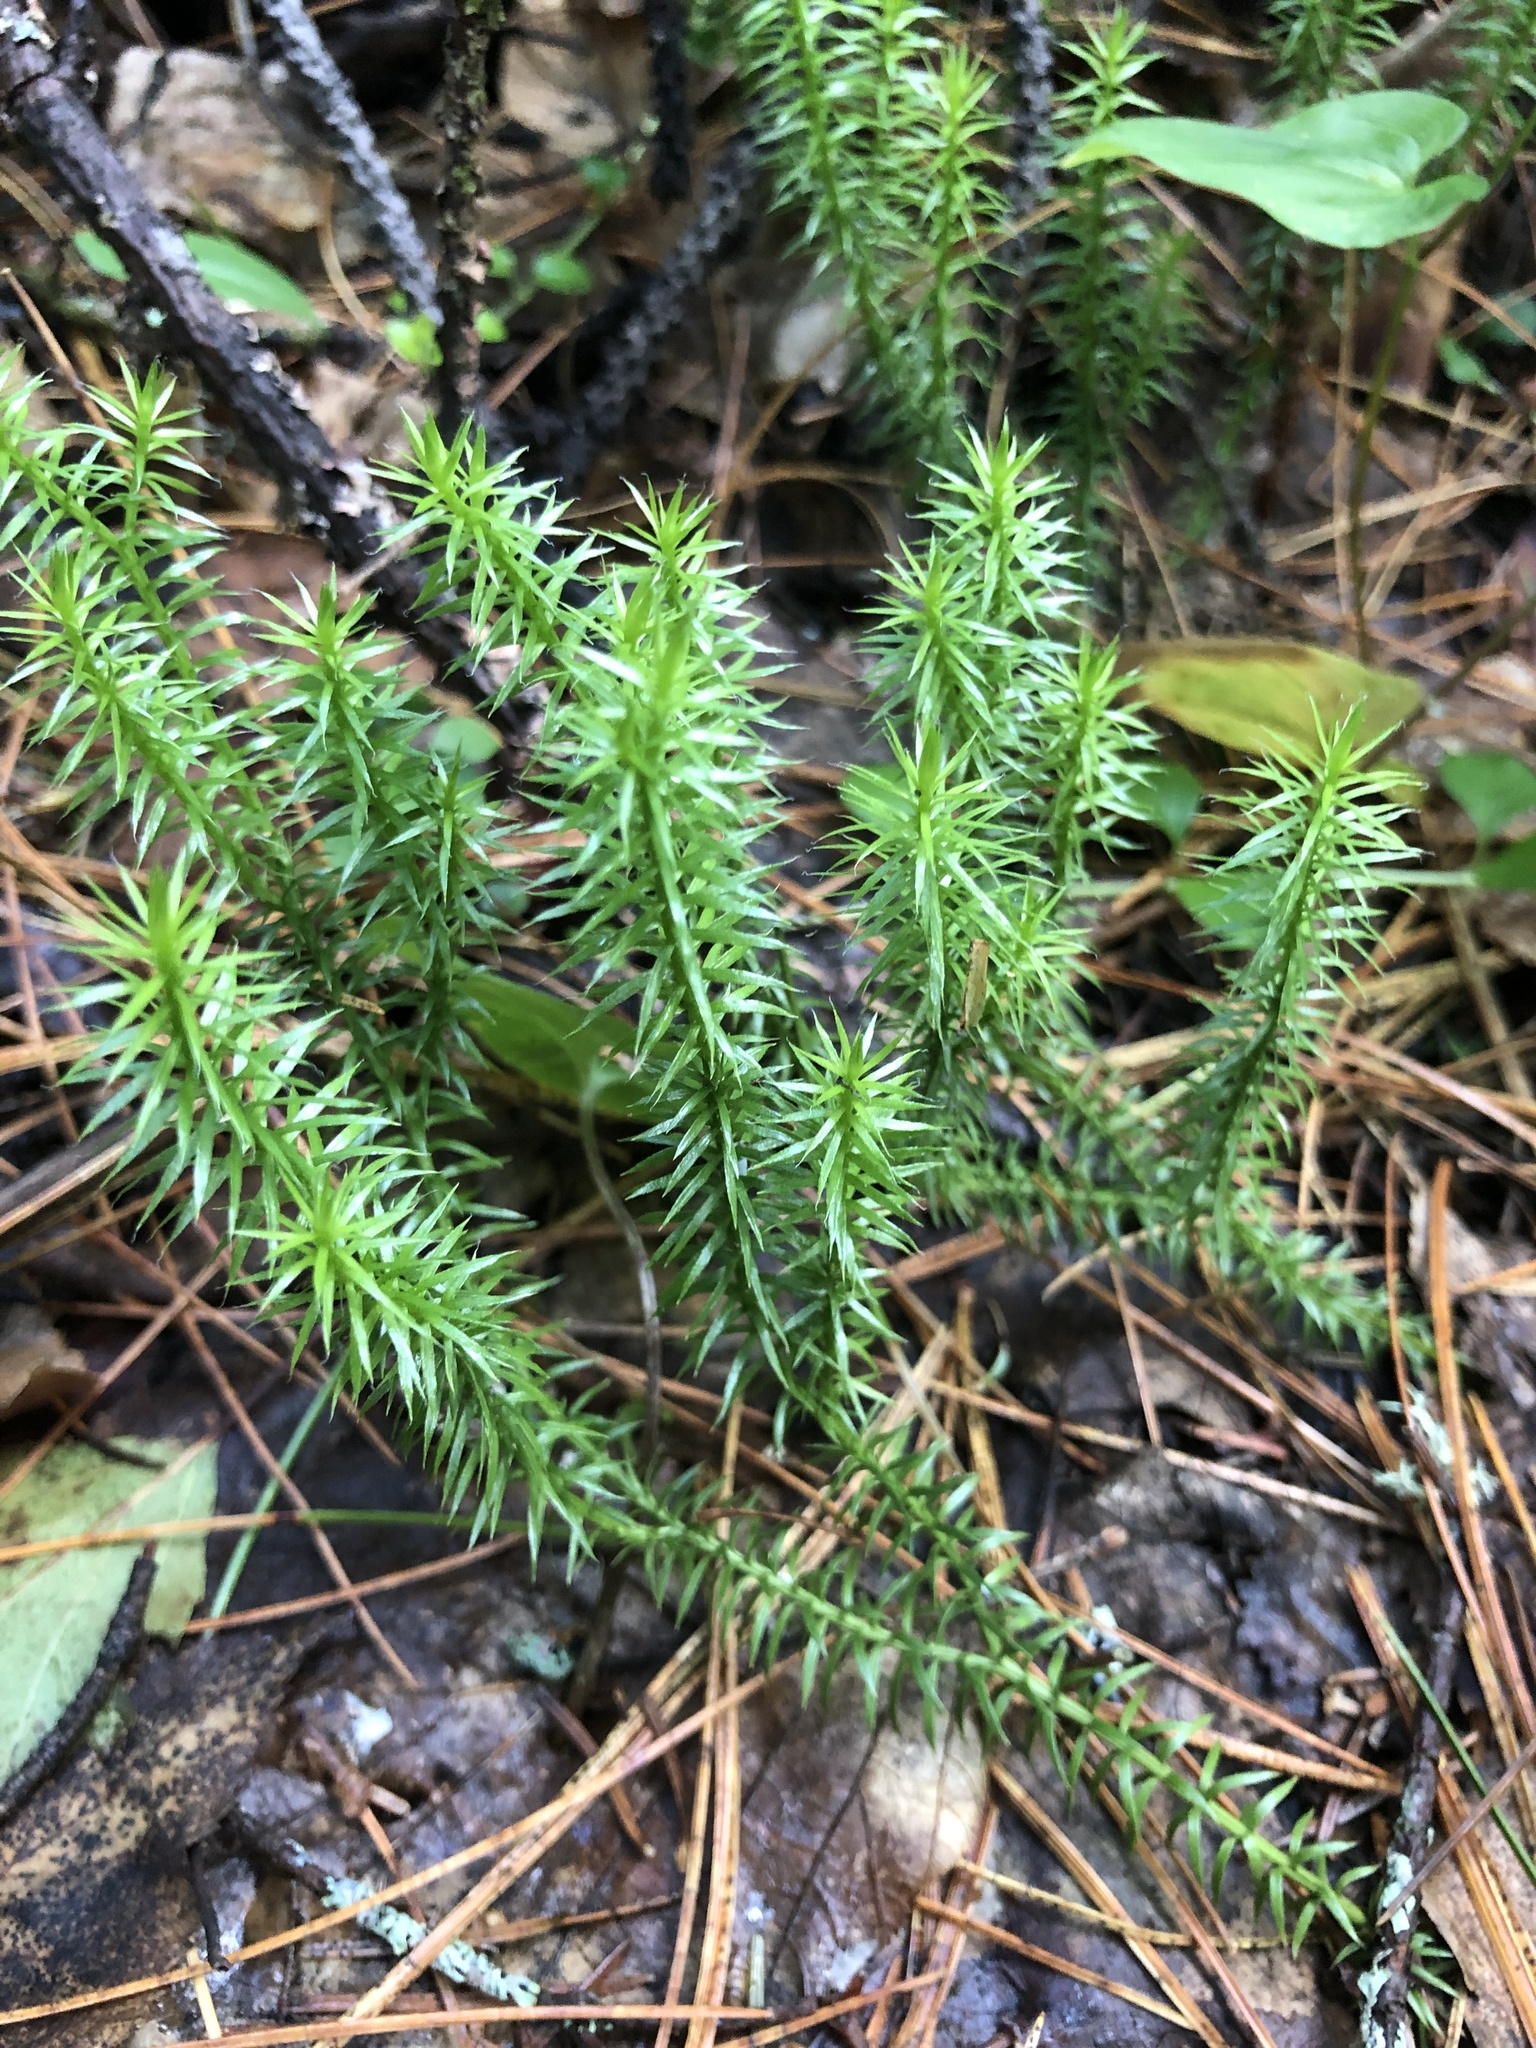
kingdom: Plantae
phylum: Tracheophyta
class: Lycopodiopsida
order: Lycopodiales
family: Lycopodiaceae
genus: Spinulum
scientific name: Spinulum annotinum
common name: Interrupted club-moss
